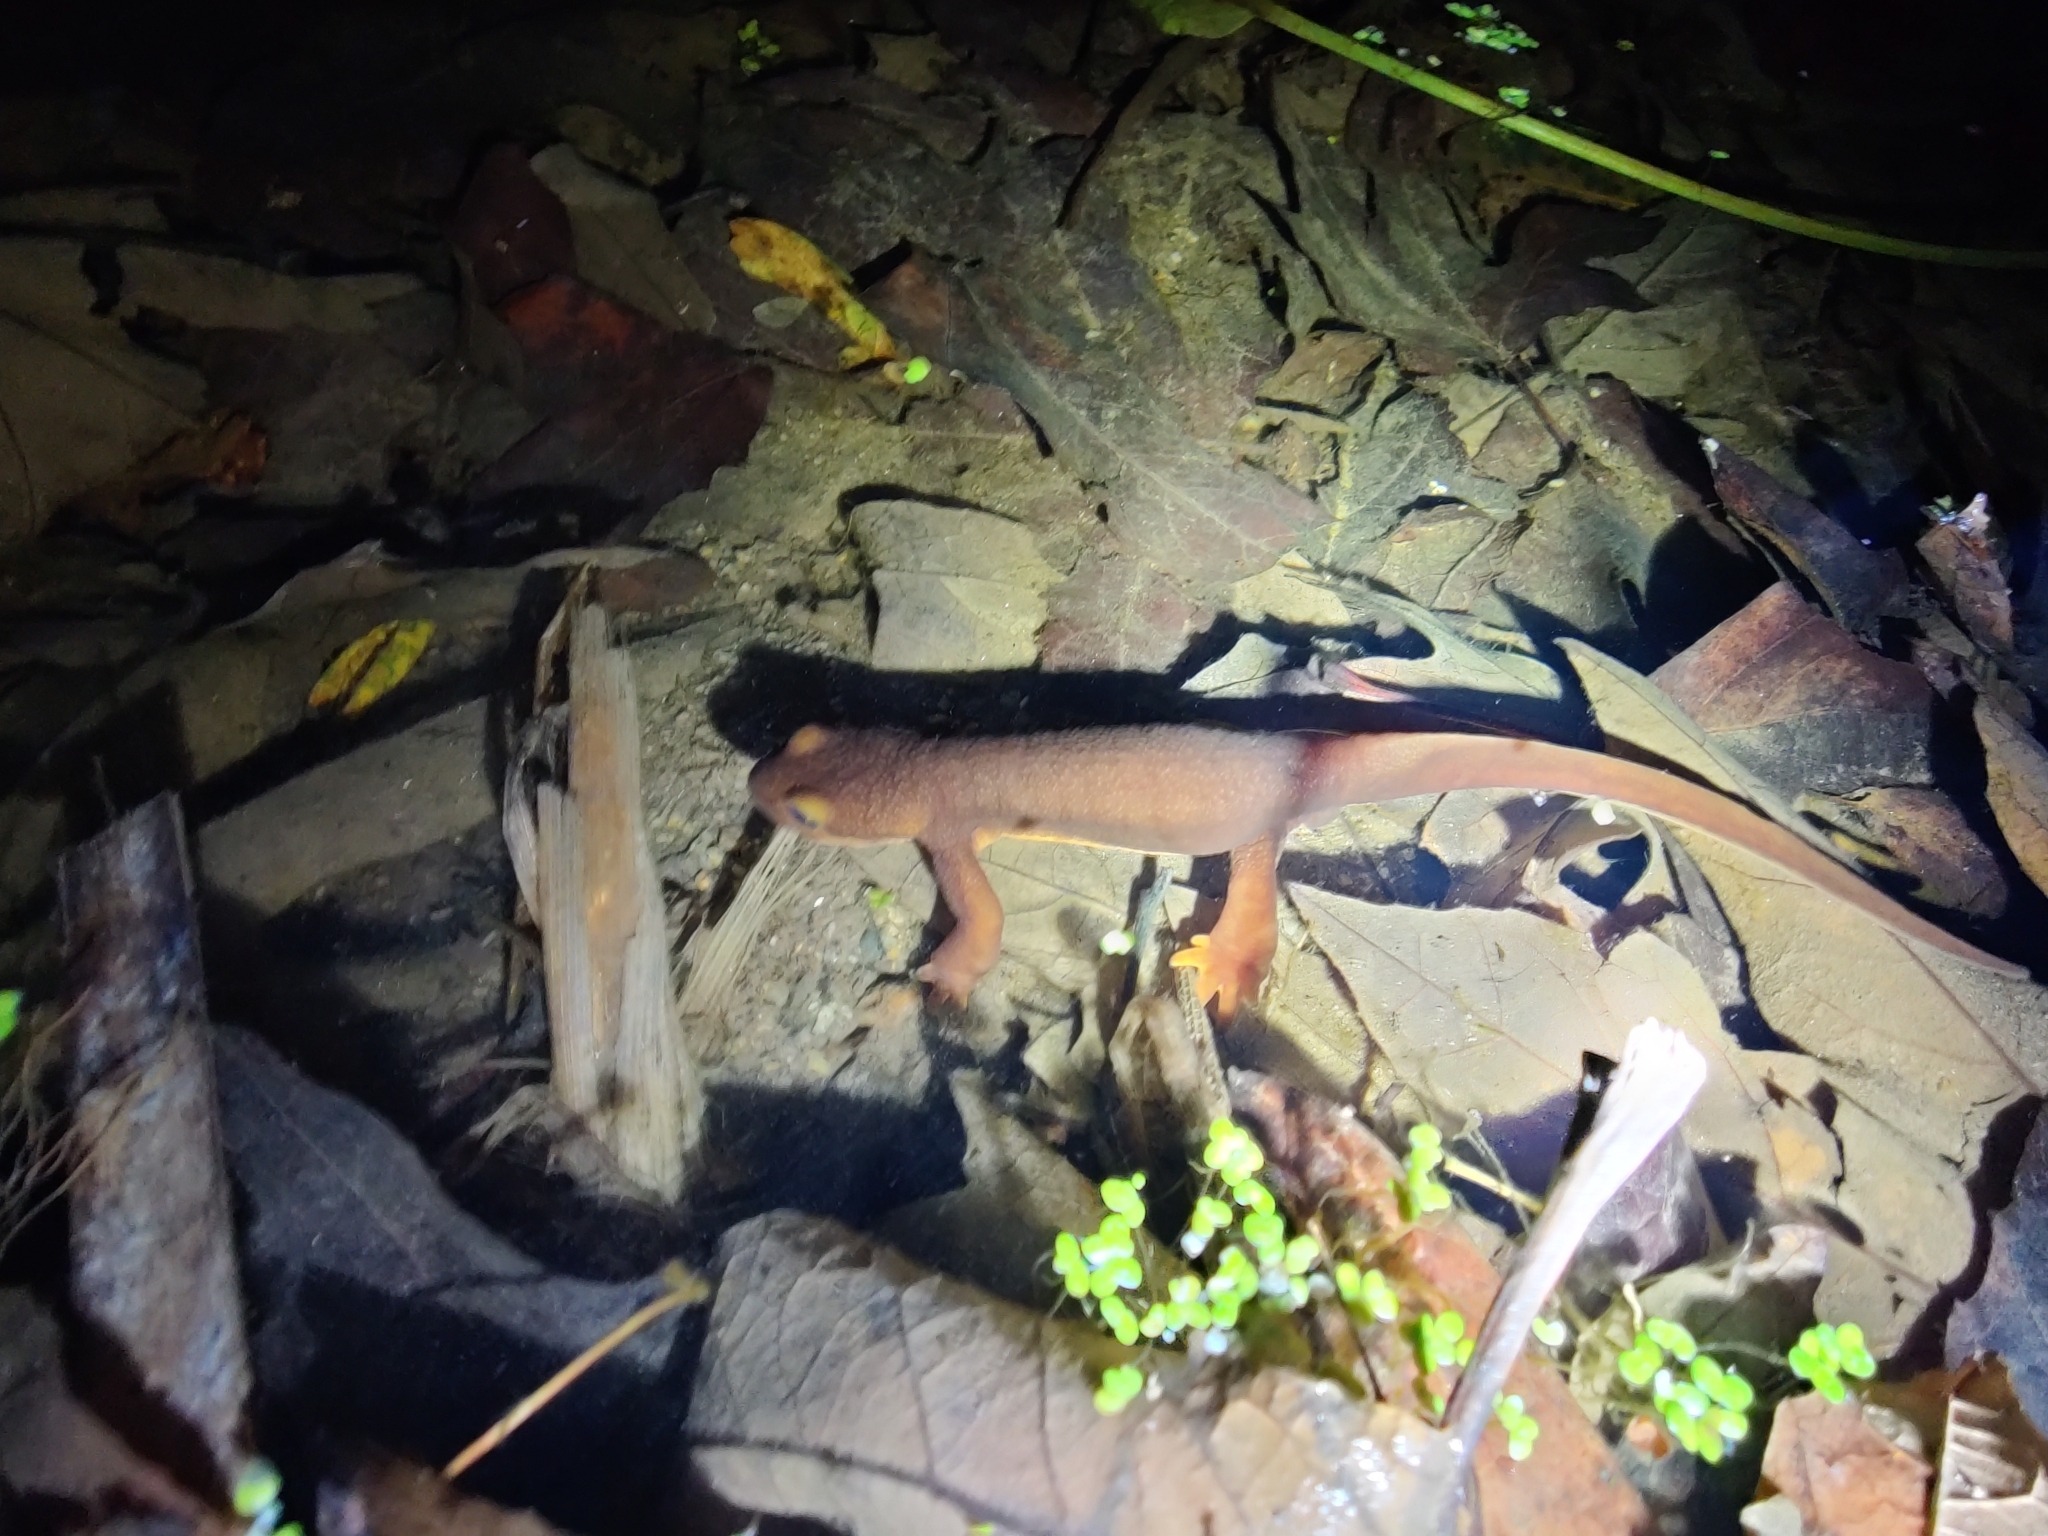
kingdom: Animalia
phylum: Chordata
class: Amphibia
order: Caudata
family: Salamandridae
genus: Taricha
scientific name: Taricha torosa
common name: California newt
